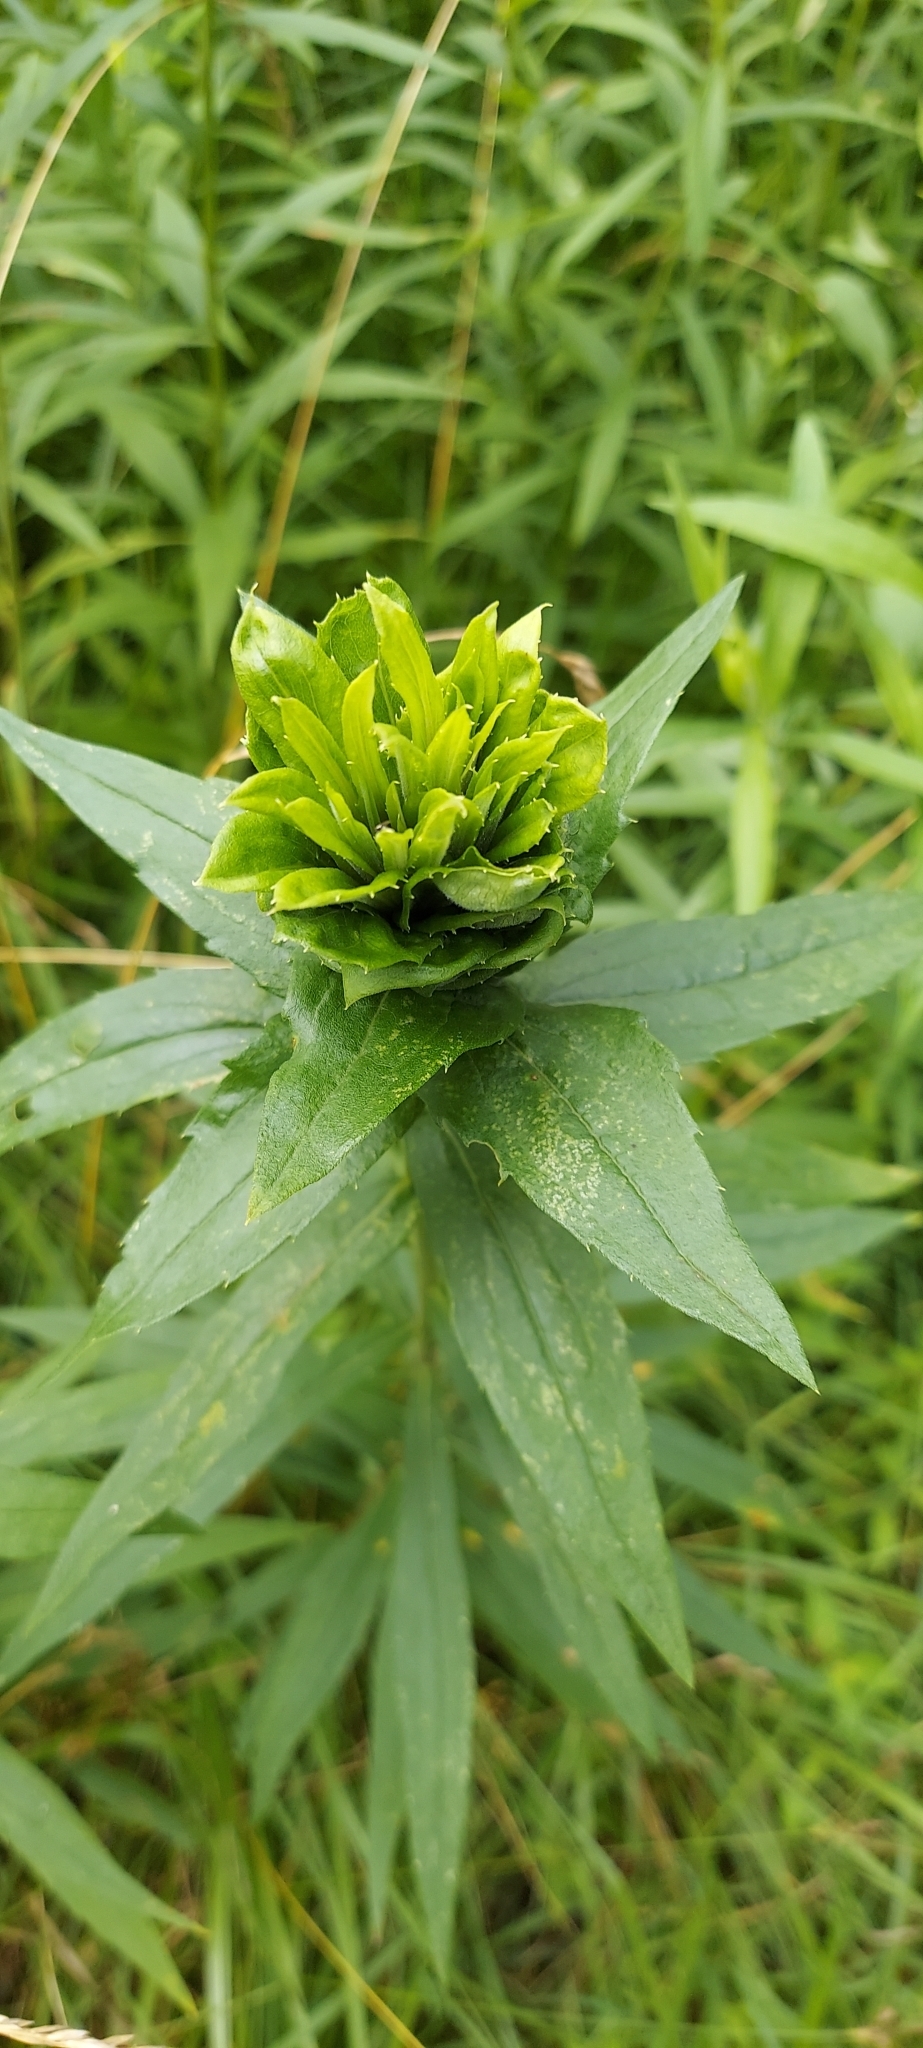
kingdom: Animalia
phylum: Arthropoda
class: Insecta
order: Diptera
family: Cecidomyiidae
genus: Rhopalomyia
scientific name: Rhopalomyia solidaginis
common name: Goldenrod bunch gall midge
